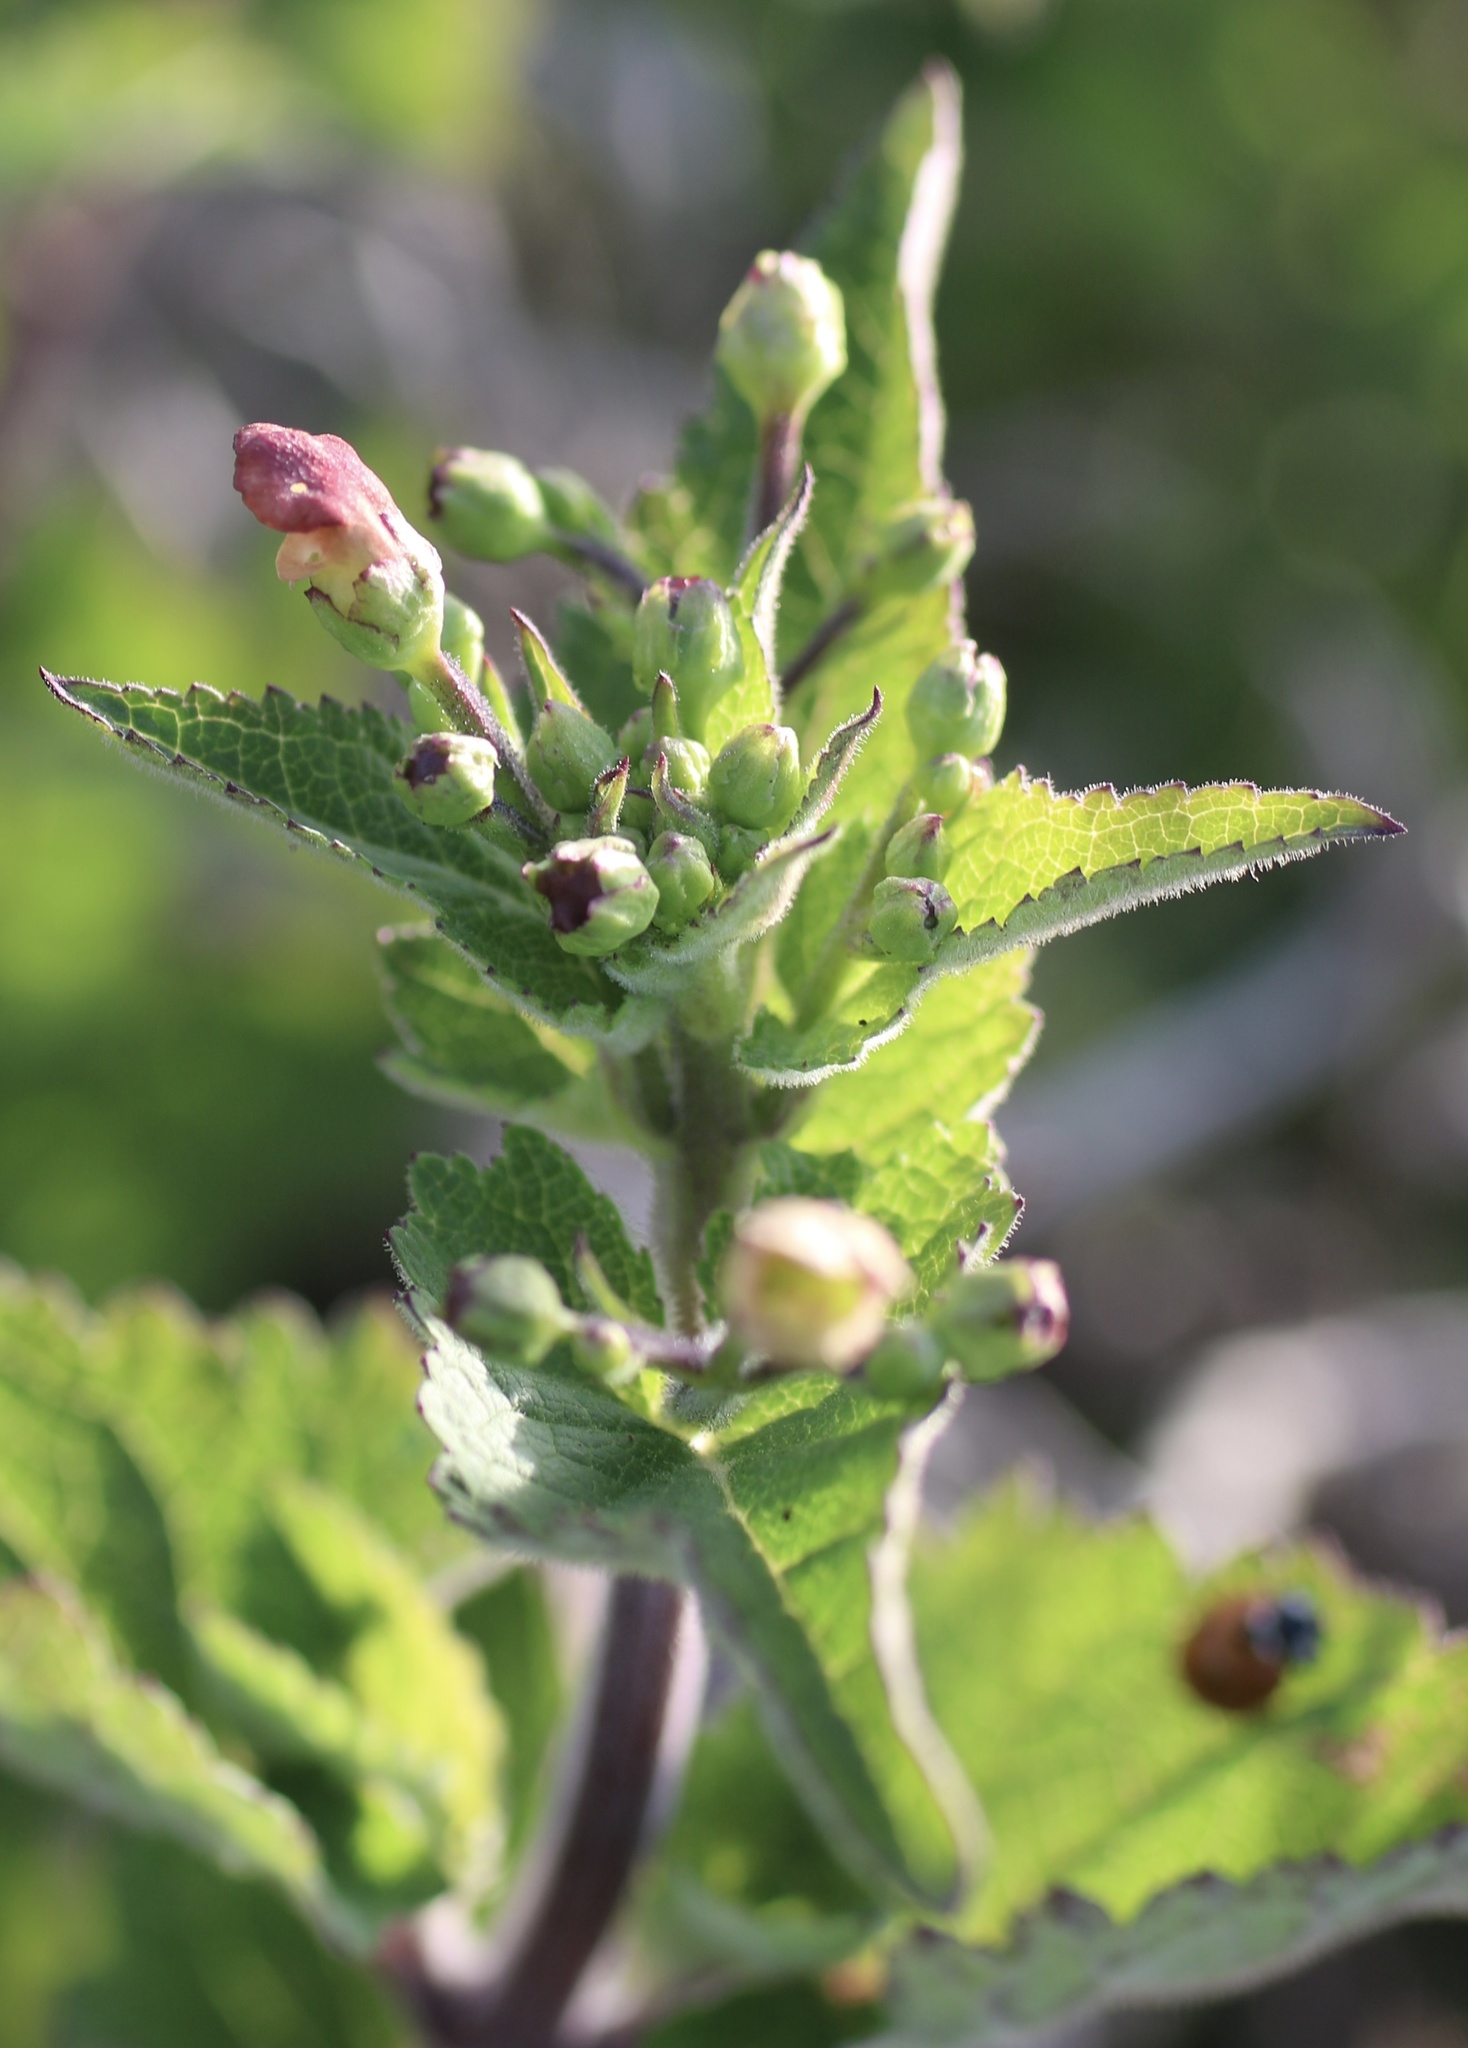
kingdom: Plantae
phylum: Tracheophyta
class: Magnoliopsida
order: Lamiales
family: Scrophulariaceae
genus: Scrophularia
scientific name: Scrophularia californica
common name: California figwort
